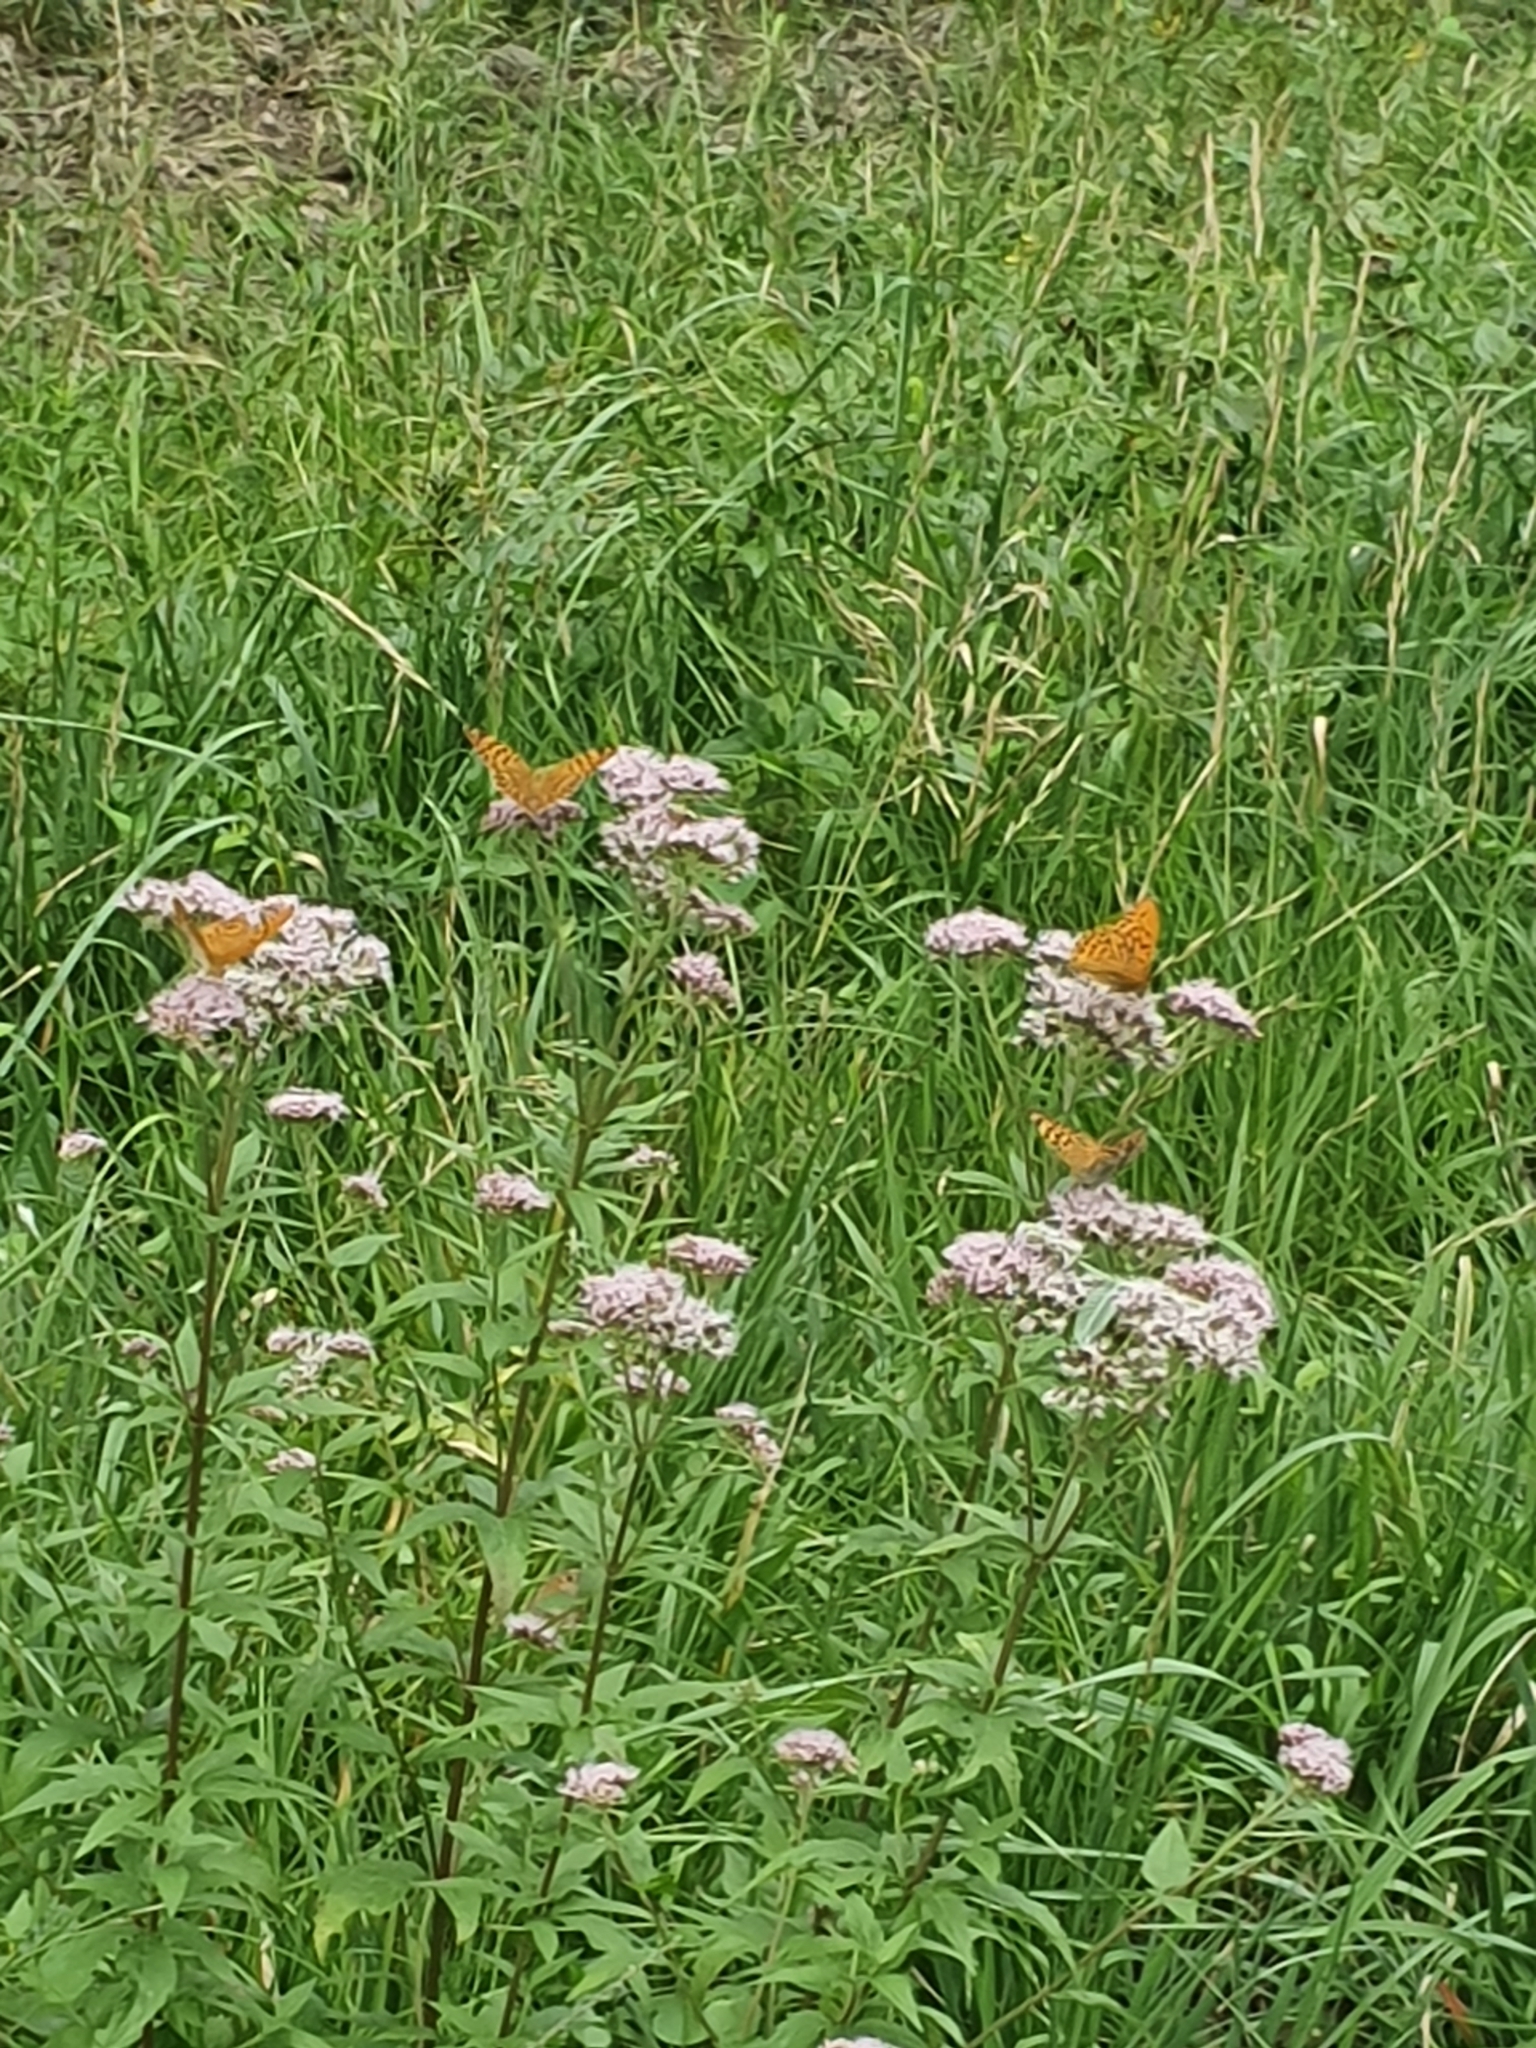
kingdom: Animalia
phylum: Arthropoda
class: Insecta
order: Lepidoptera
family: Nymphalidae
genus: Argynnis
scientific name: Argynnis paphia
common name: Silver-washed fritillary
